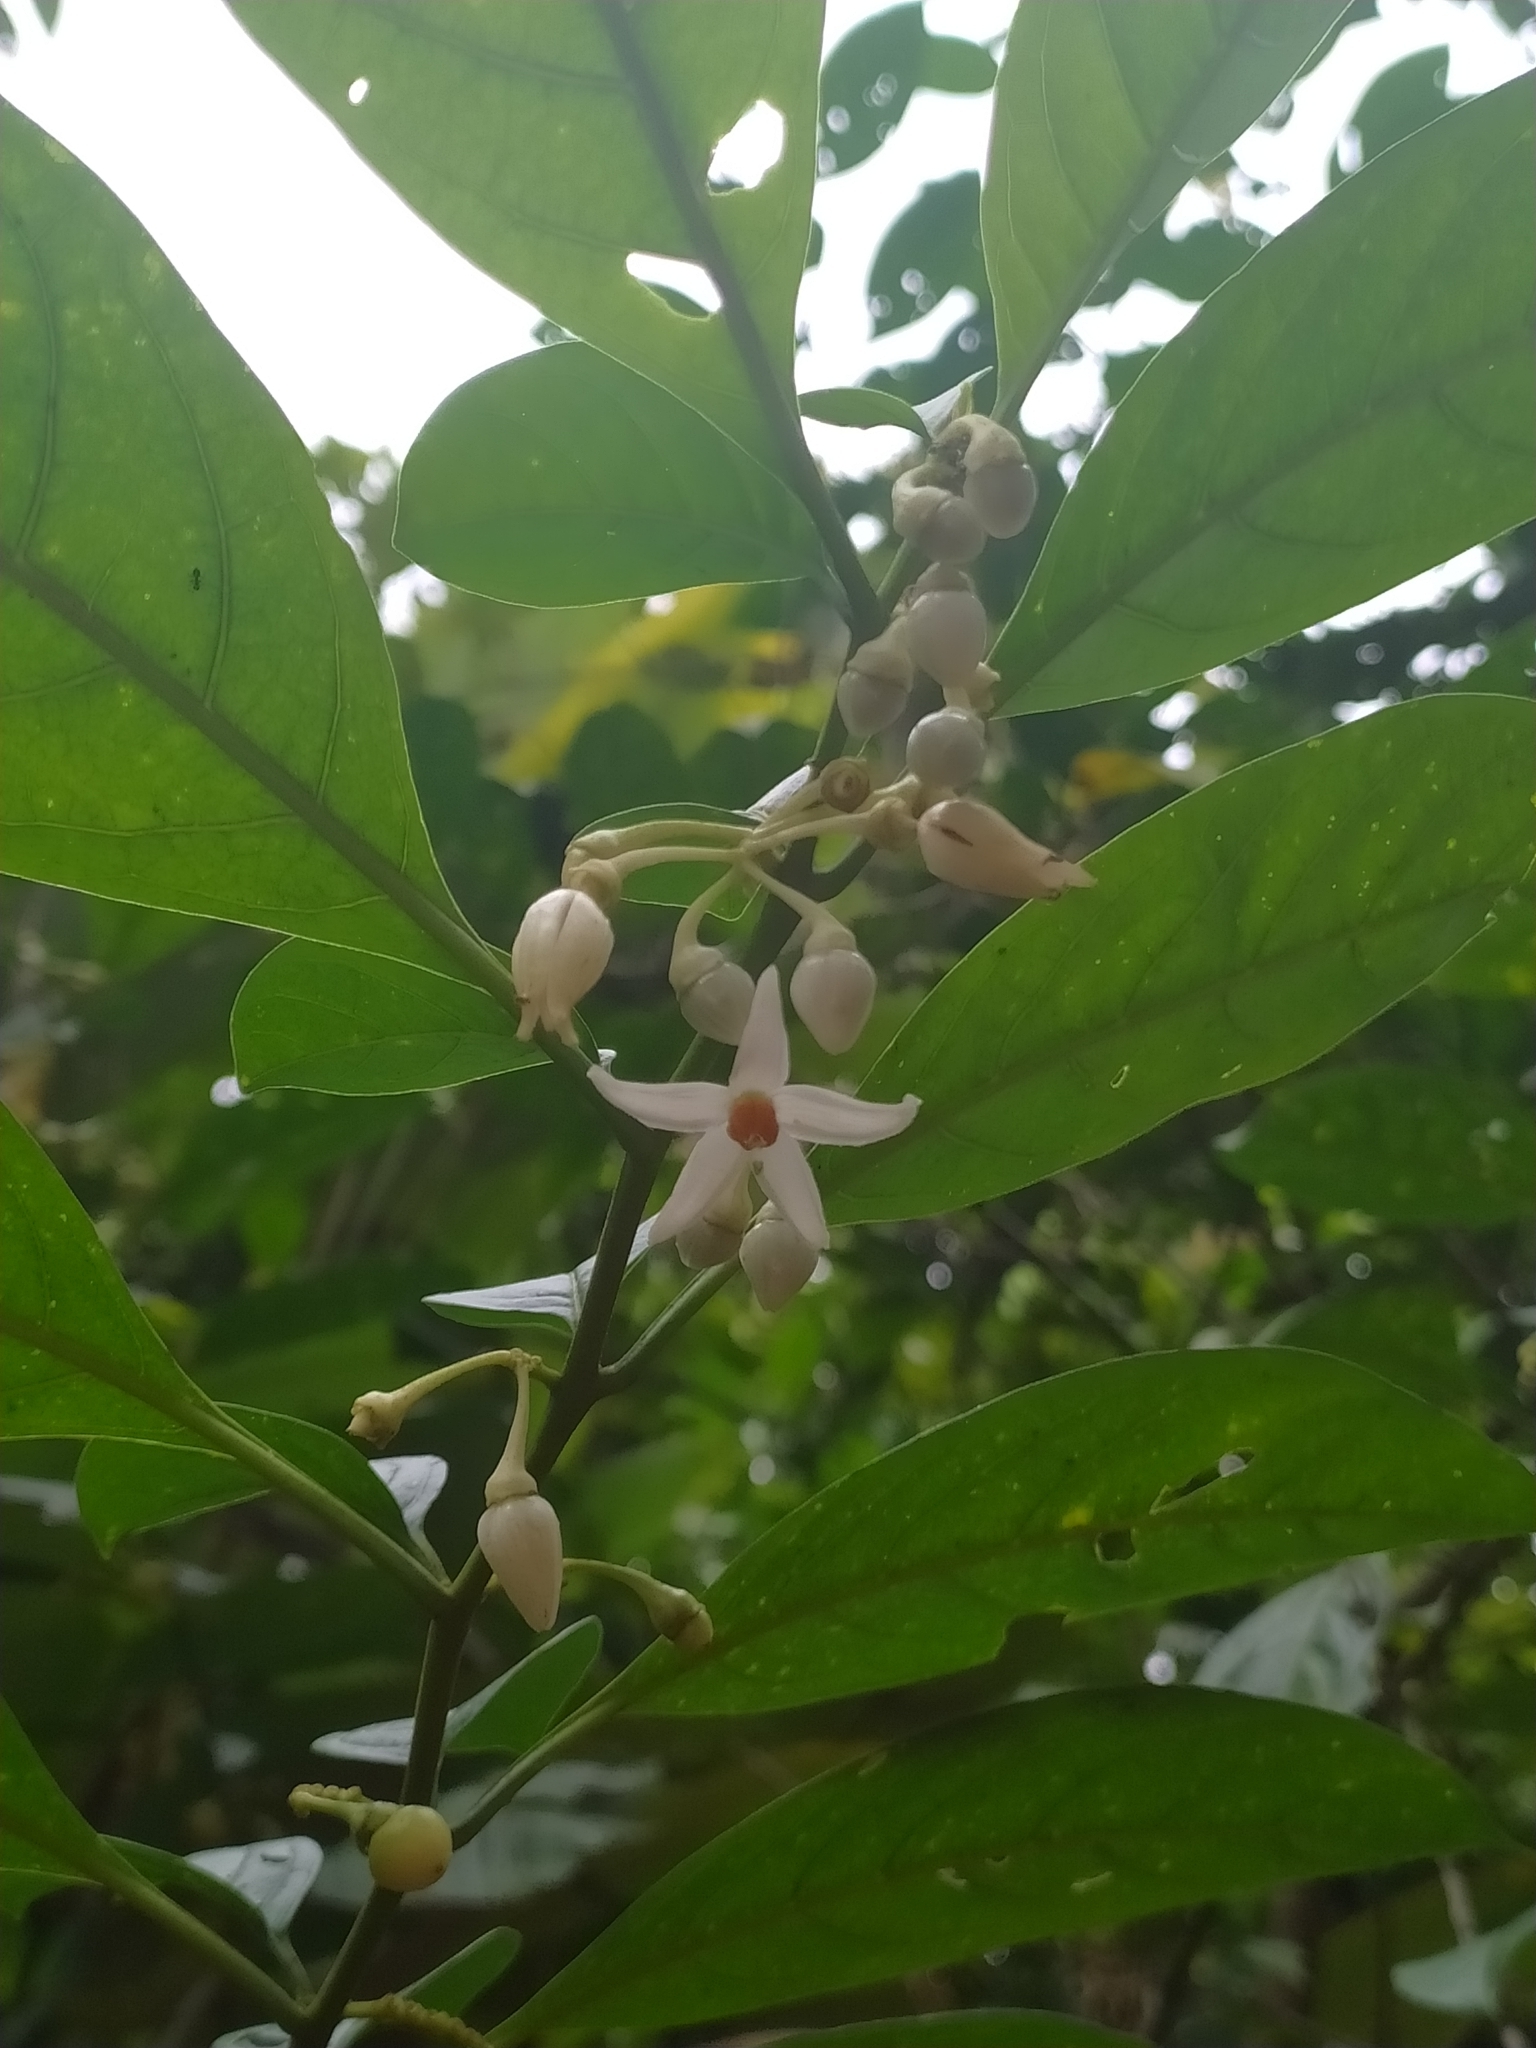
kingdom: Plantae
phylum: Tracheophyta
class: Magnoliopsida
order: Solanales
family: Solanaceae
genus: Solanum
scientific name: Solanum leucocarpon
